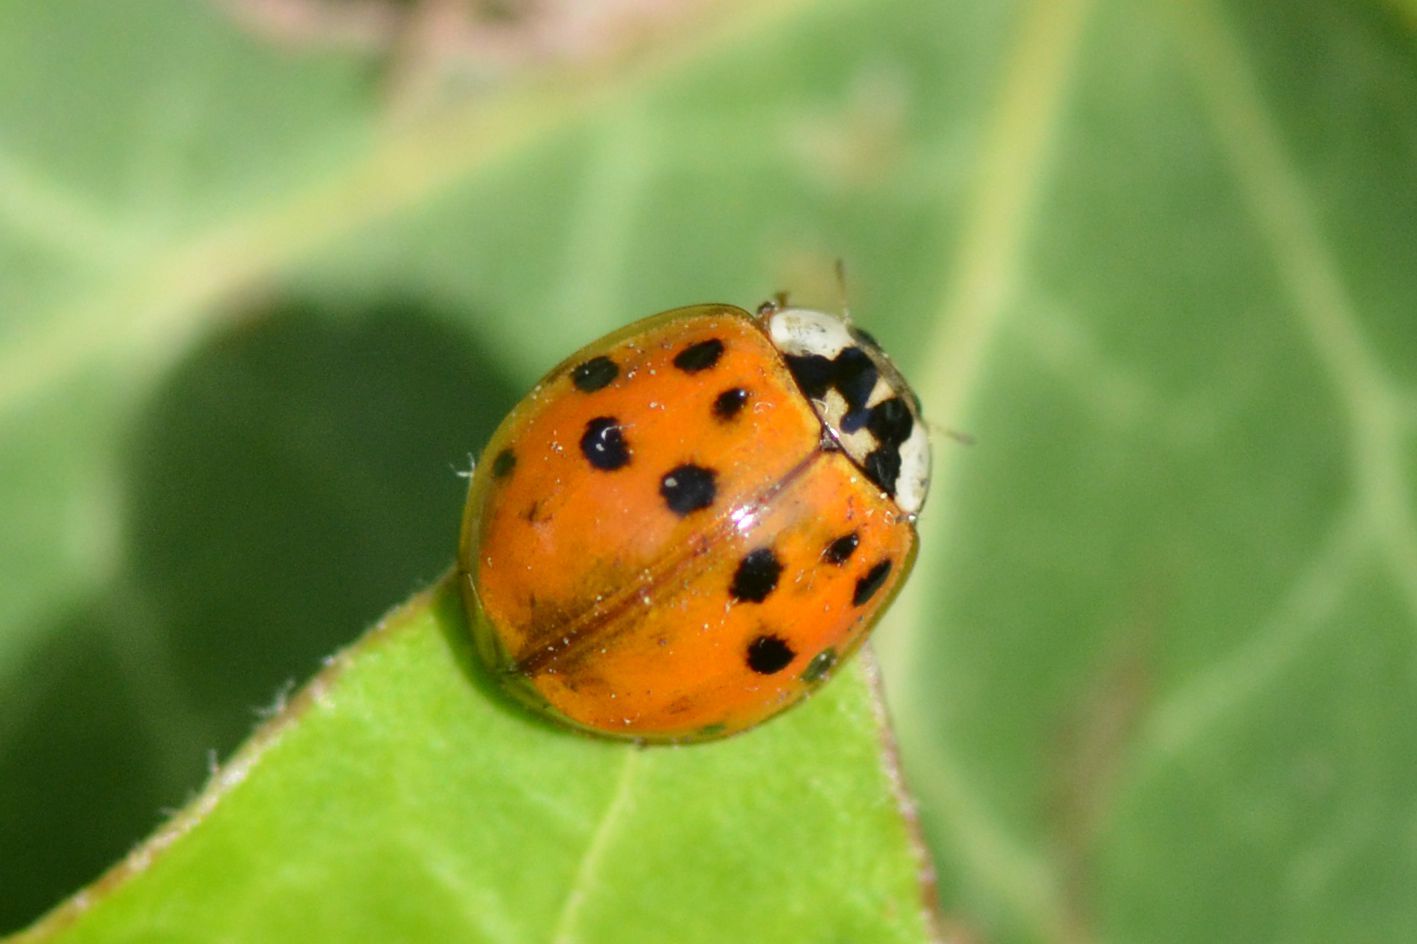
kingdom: Animalia
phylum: Arthropoda
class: Insecta
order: Coleoptera
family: Coccinellidae
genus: Harmonia
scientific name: Harmonia axyridis
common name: Harlequin ladybird
